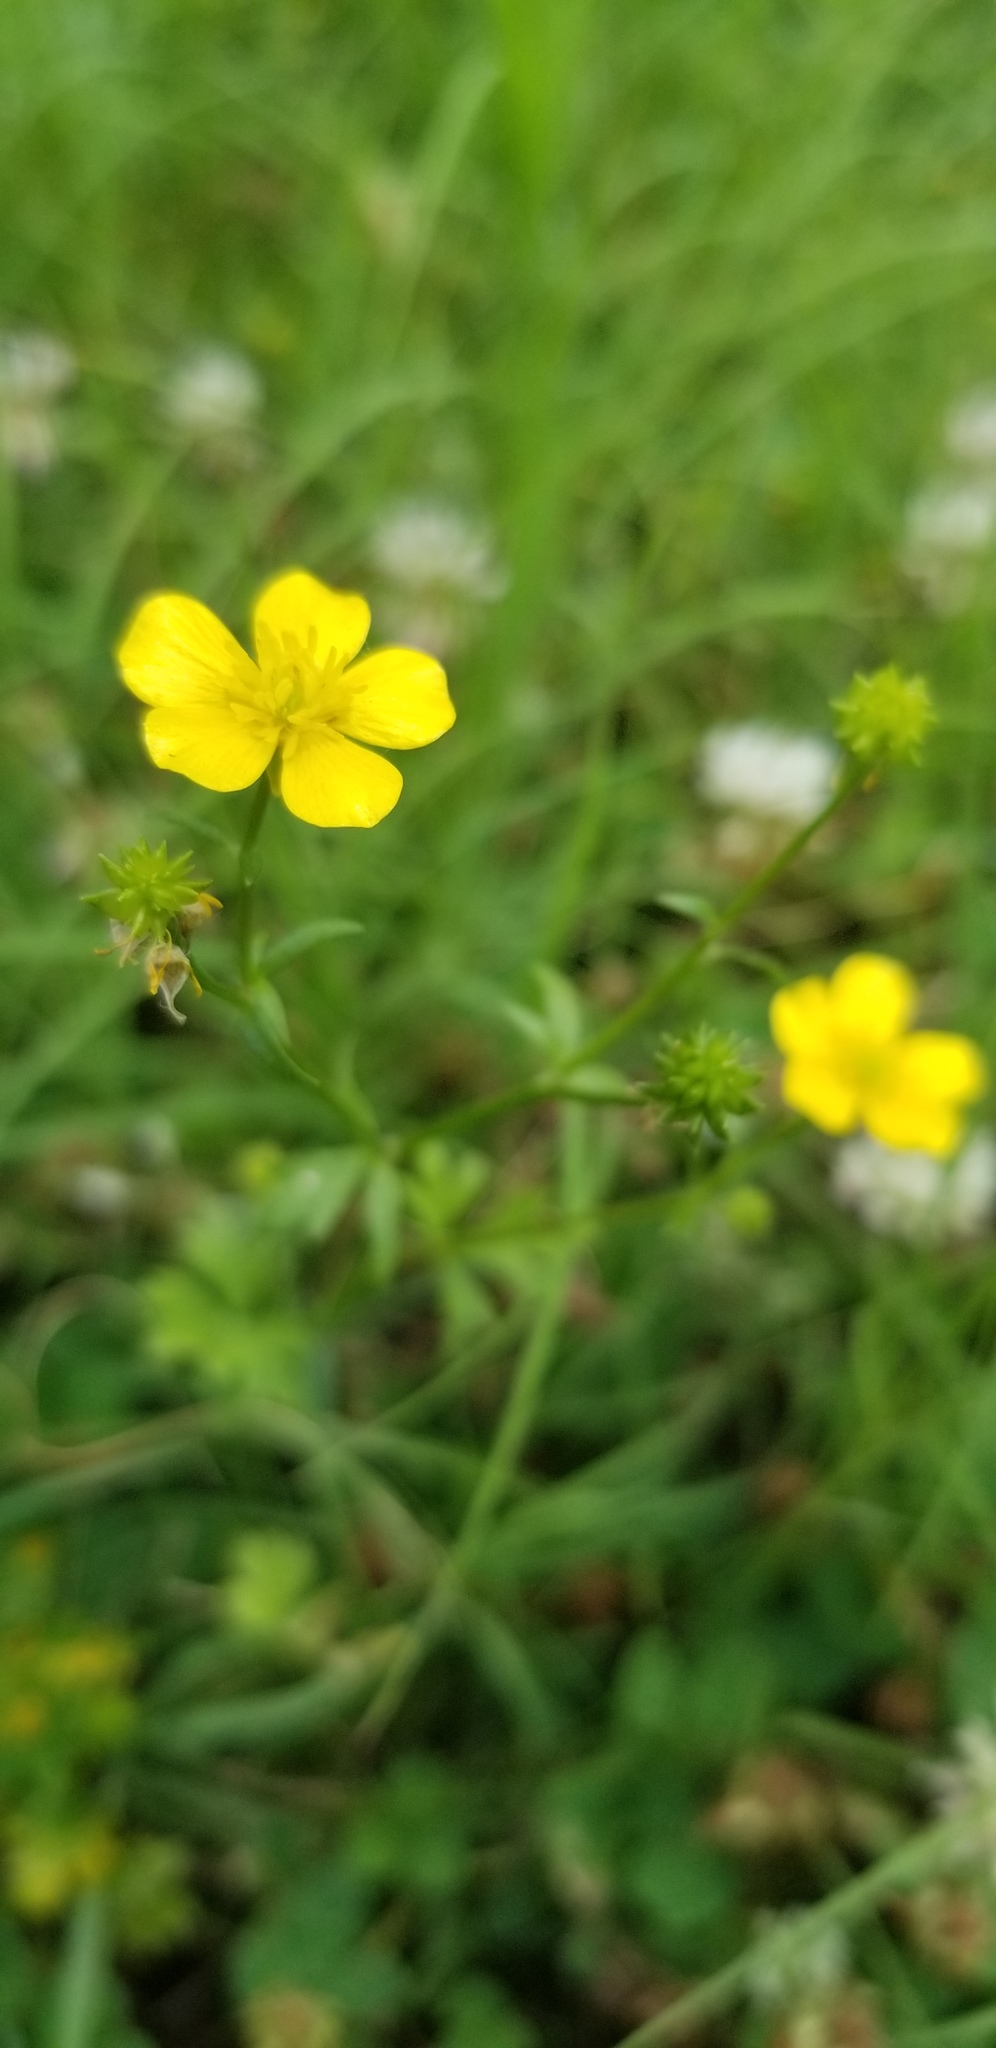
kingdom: Plantae
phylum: Tracheophyta
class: Magnoliopsida
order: Ranunculales
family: Ranunculaceae
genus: Ranunculus
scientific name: Ranunculus sardous
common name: Hairy buttercup
